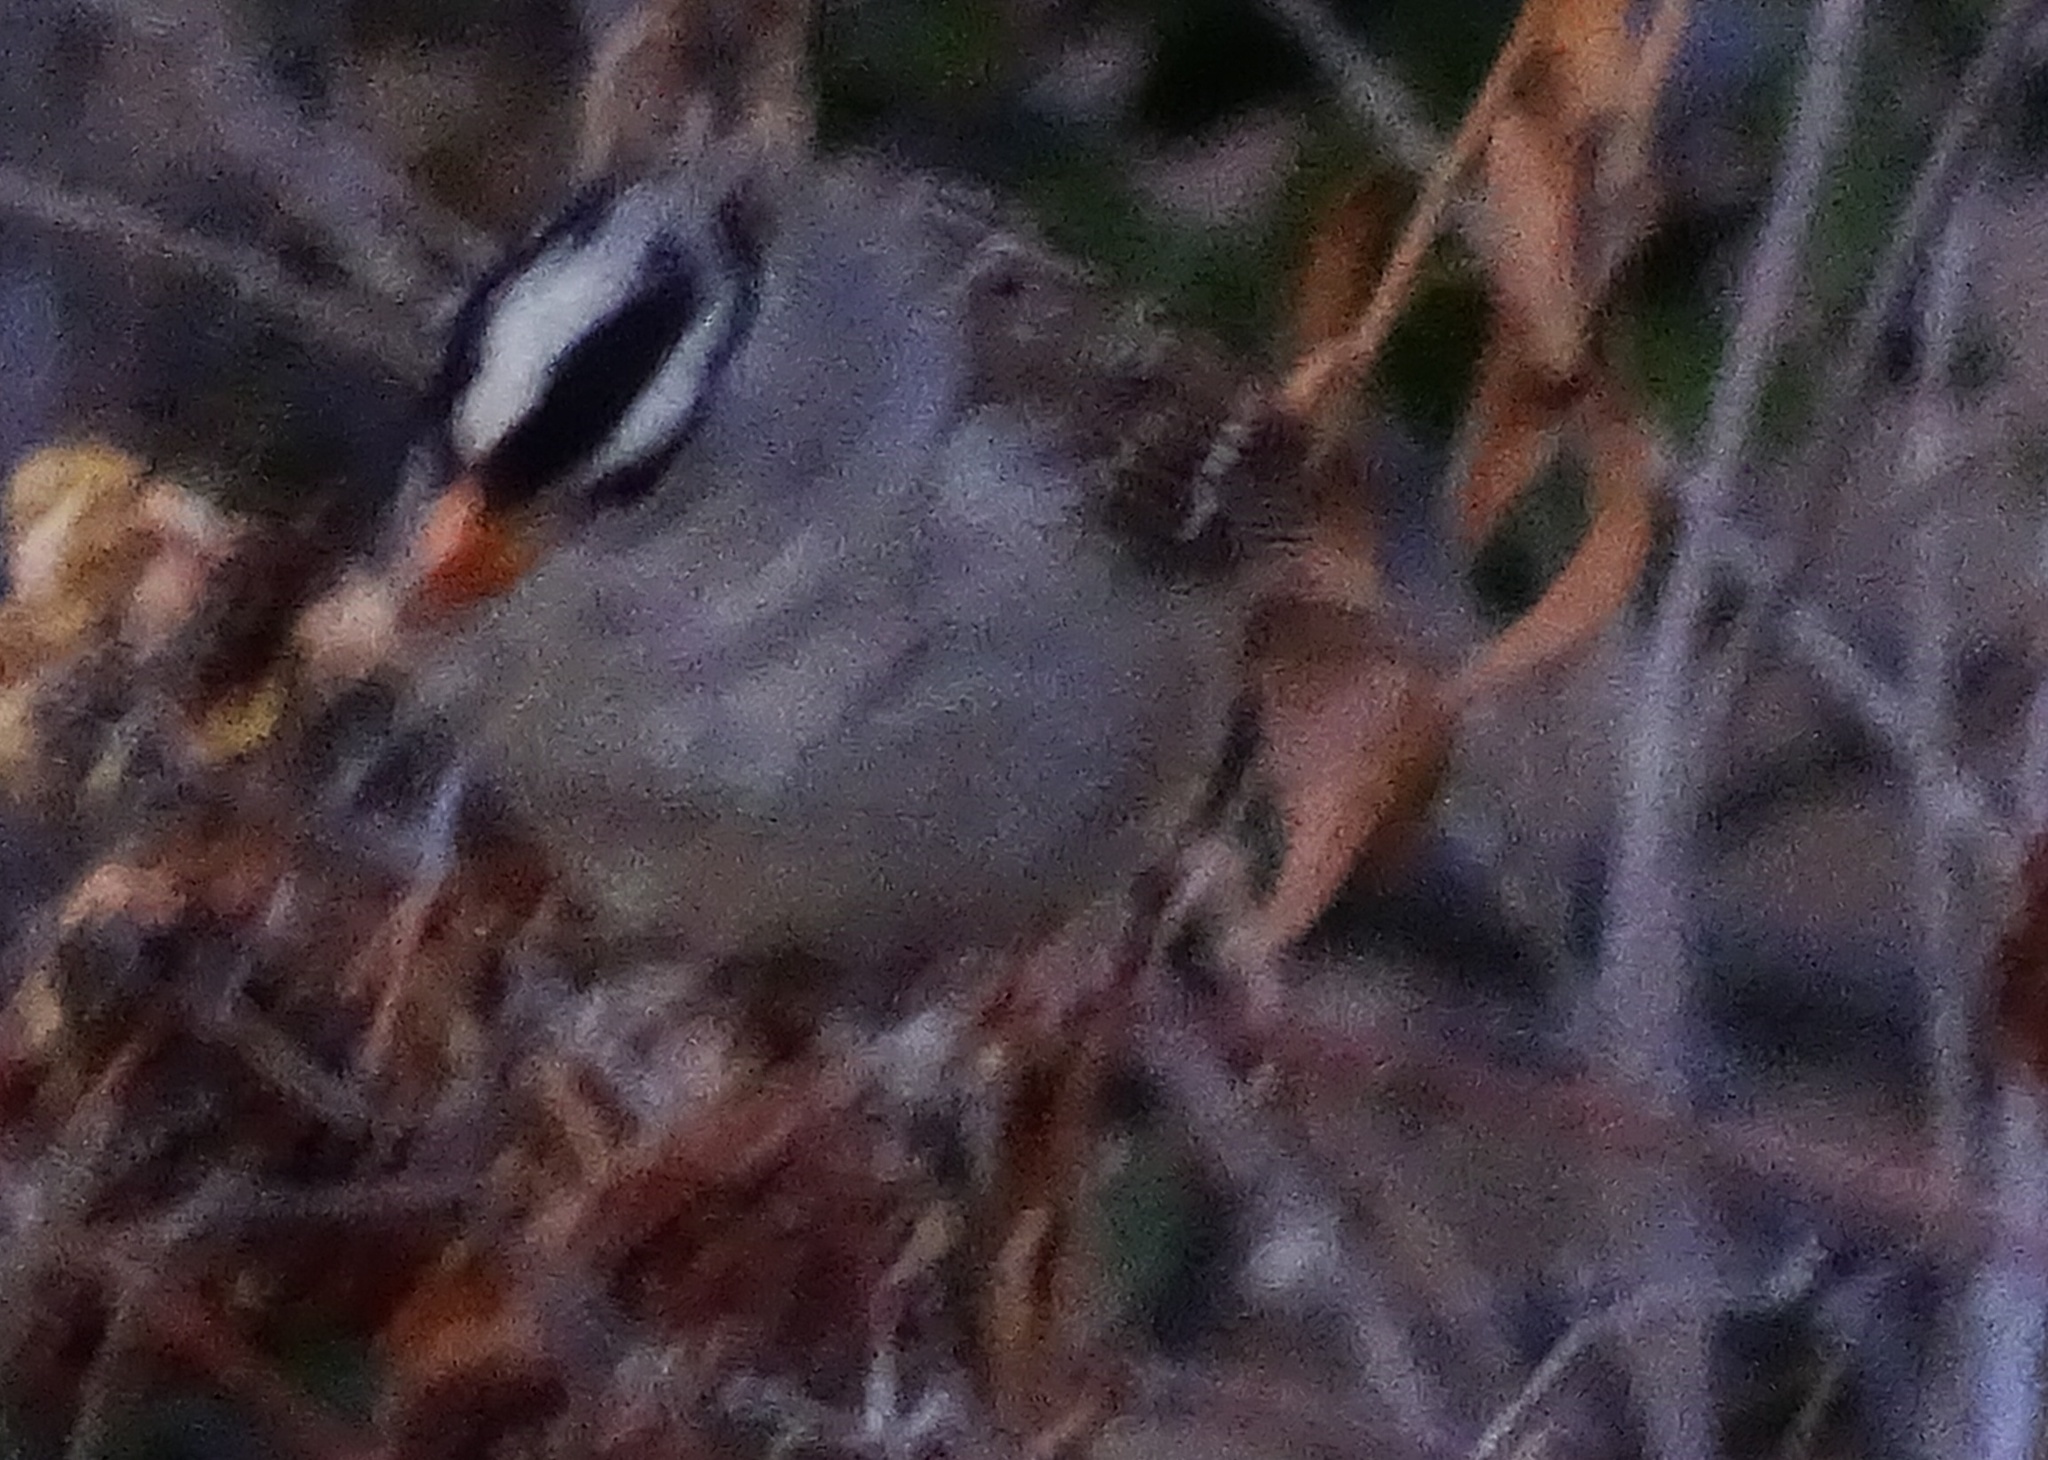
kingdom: Animalia
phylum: Chordata
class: Aves
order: Passeriformes
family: Passerellidae
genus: Zonotrichia
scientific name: Zonotrichia leucophrys
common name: White-crowned sparrow
